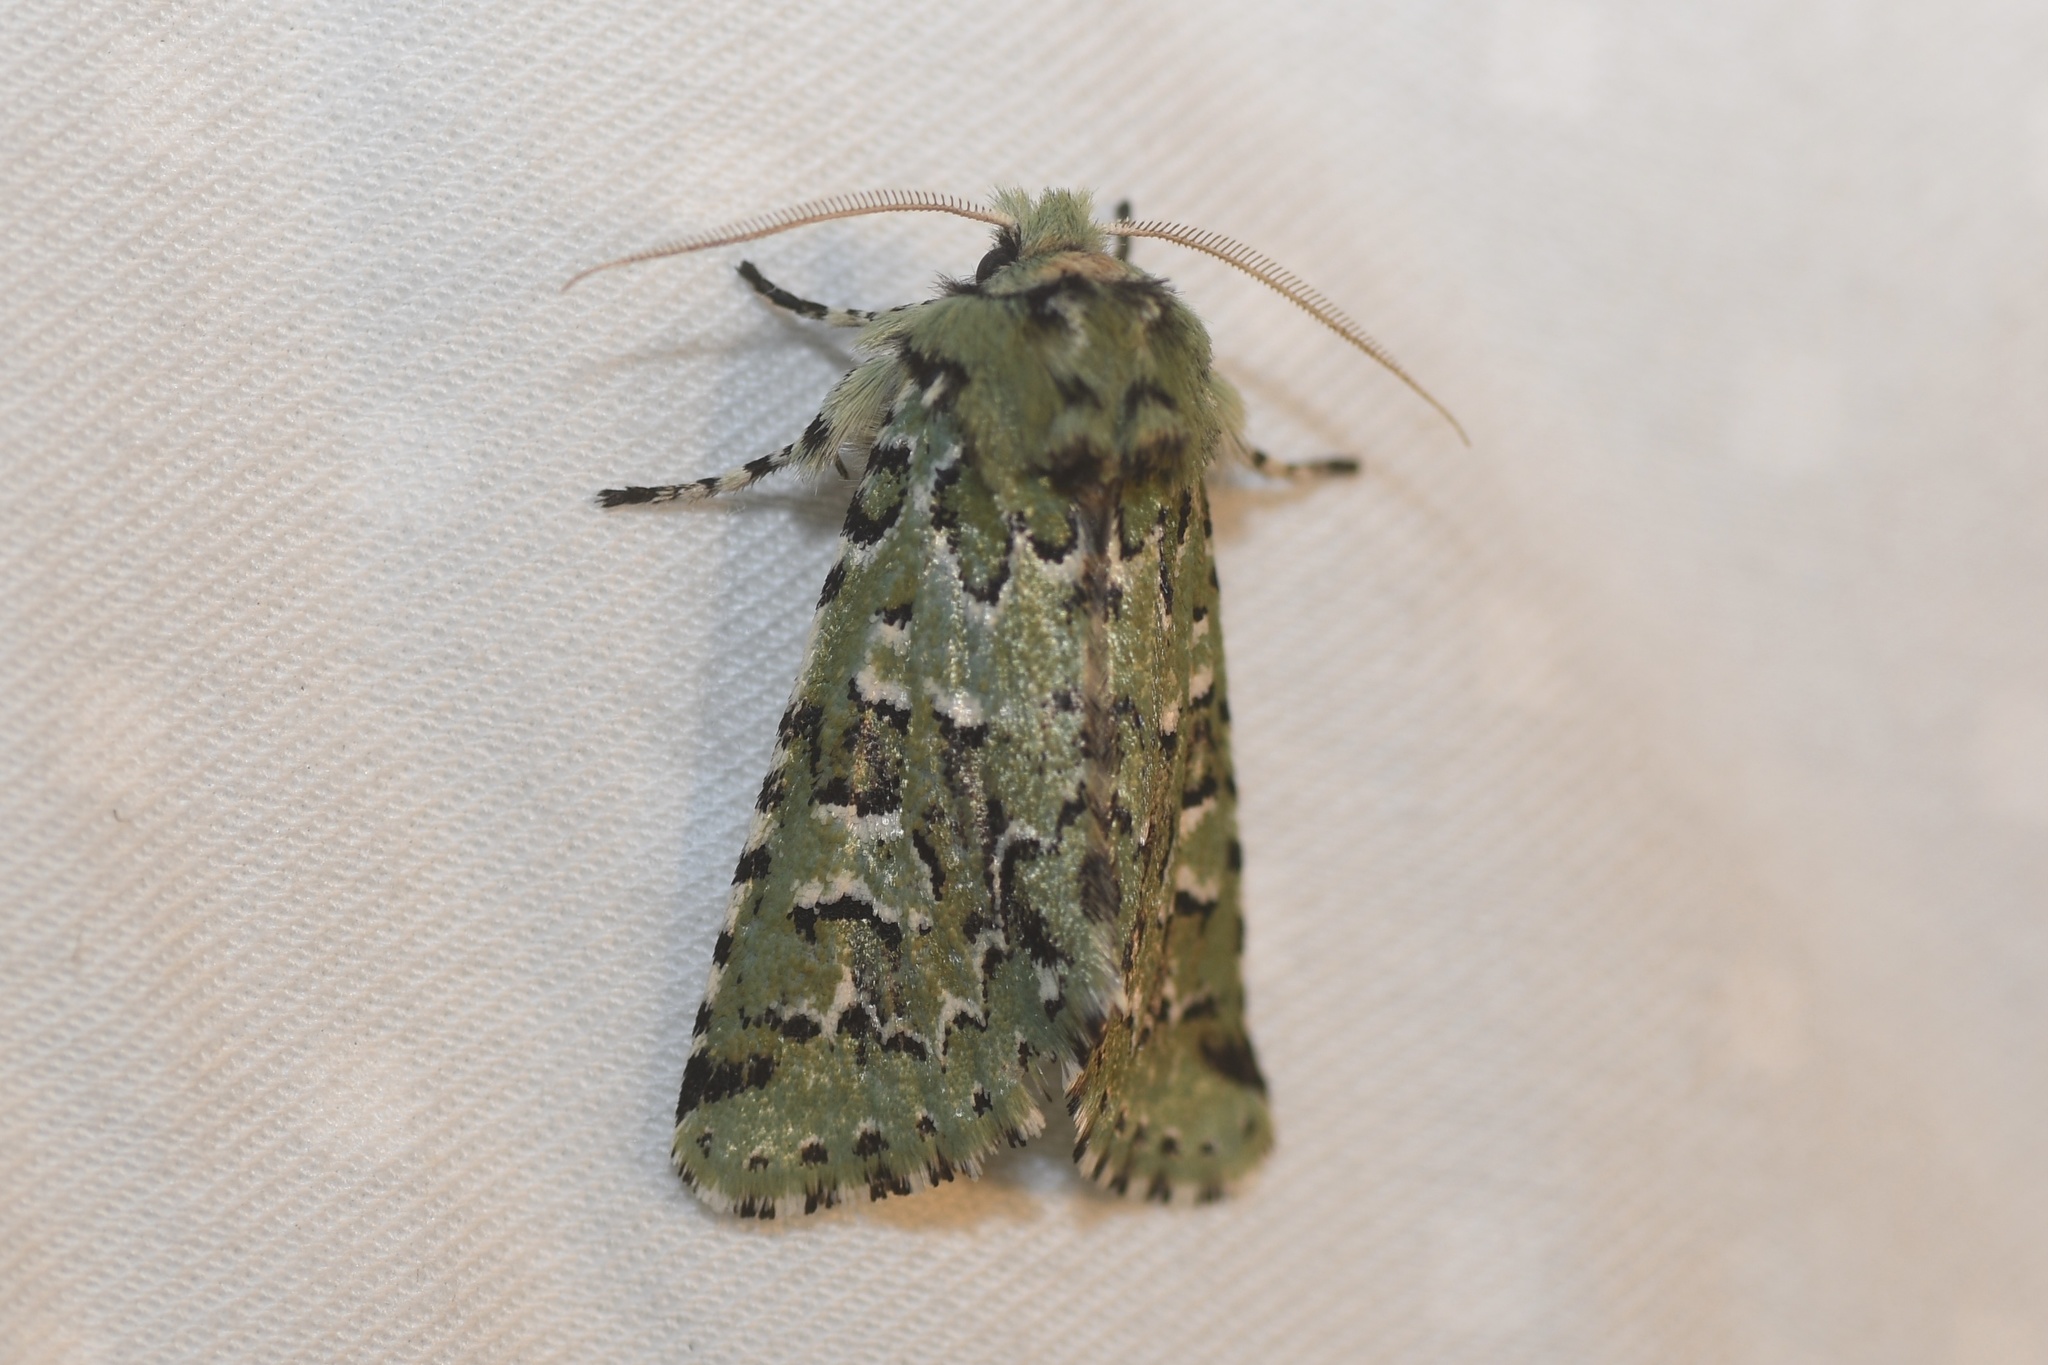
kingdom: Animalia
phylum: Arthropoda
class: Insecta
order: Lepidoptera
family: Noctuidae
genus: Feralia
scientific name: Feralia comstocki
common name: Comstock's sallow
